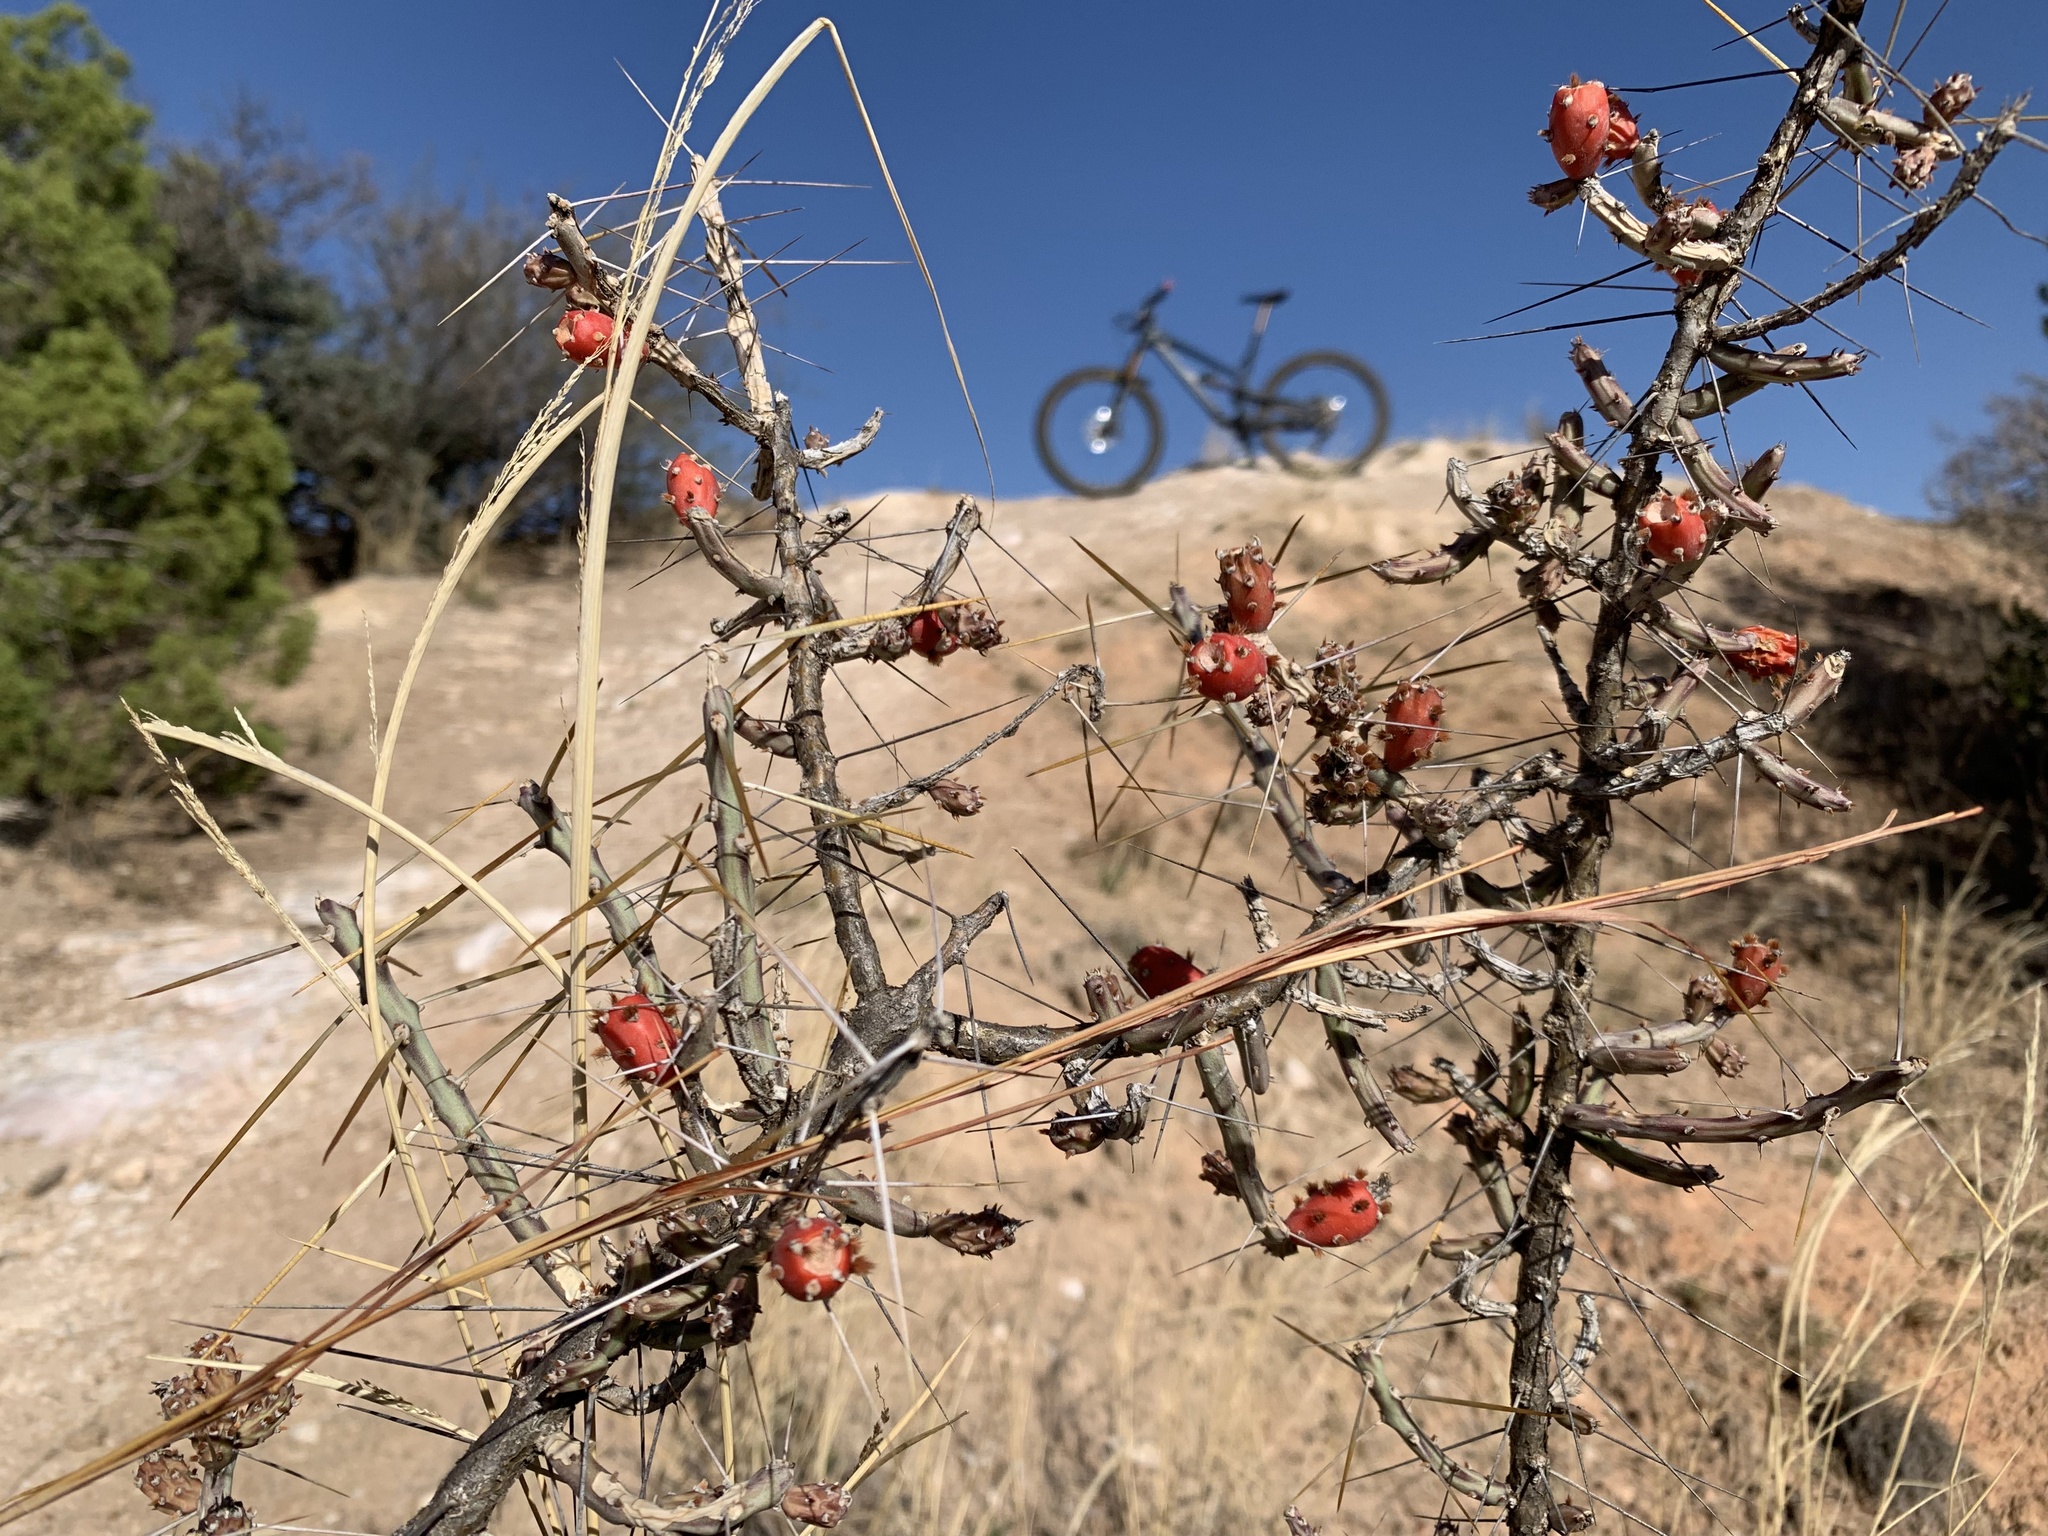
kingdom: Plantae
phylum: Tracheophyta
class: Magnoliopsida
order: Caryophyllales
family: Cactaceae
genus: Cylindropuntia
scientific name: Cylindropuntia leptocaulis
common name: Christmas cactus
